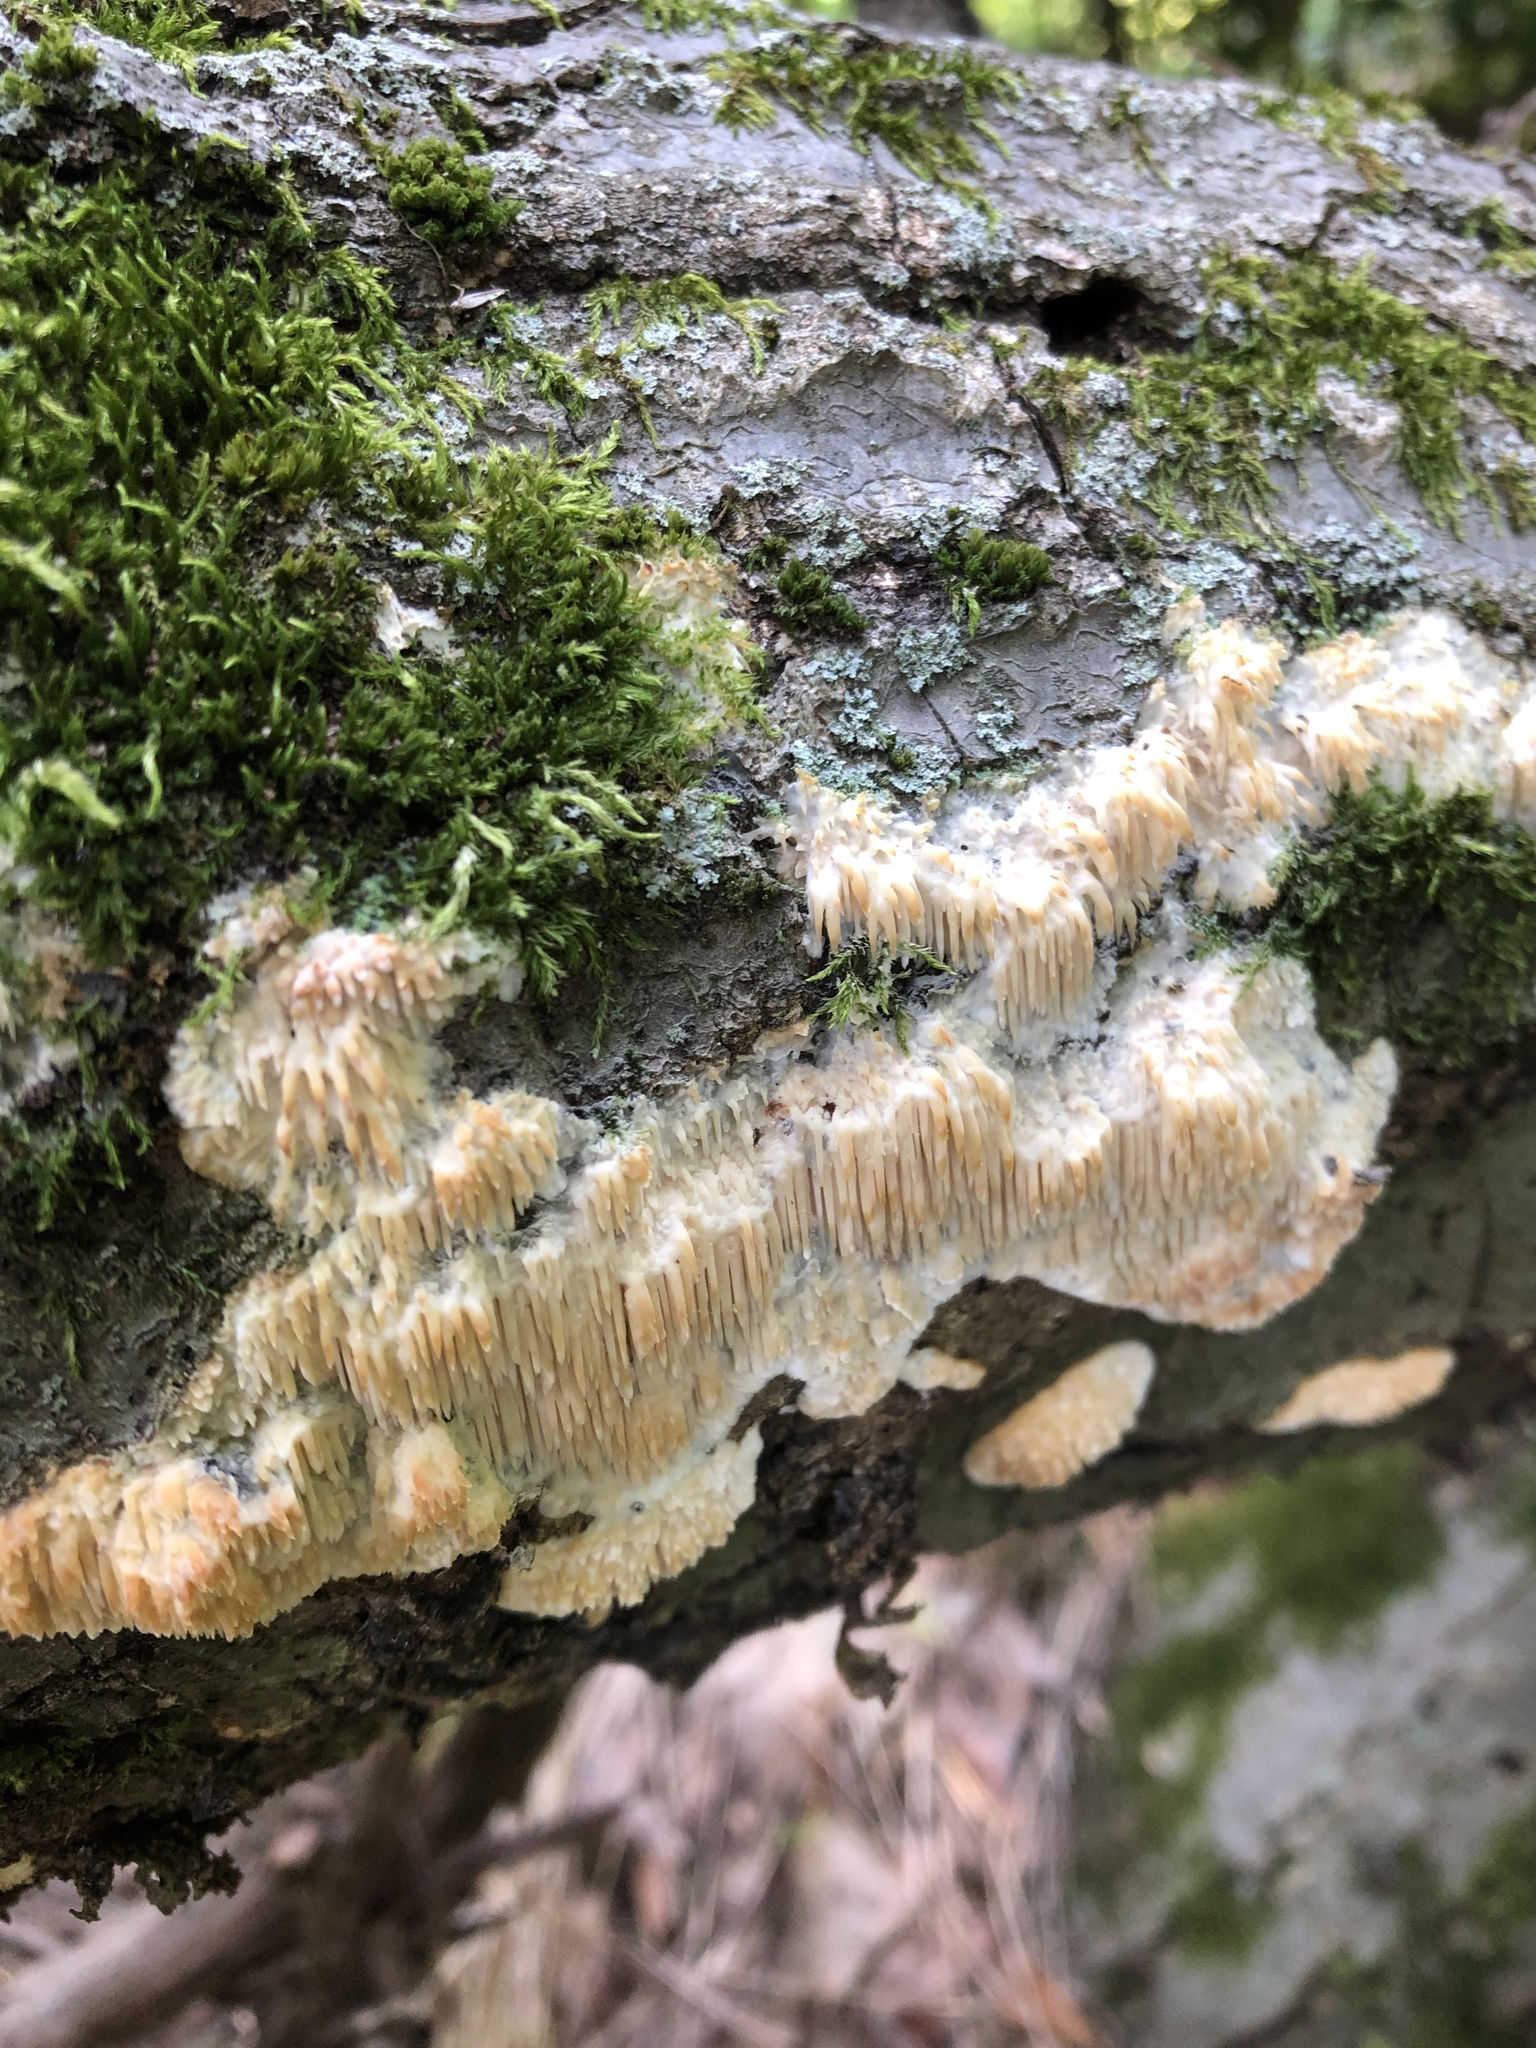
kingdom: Fungi
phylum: Basidiomycota
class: Agaricomycetes
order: Agaricales
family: Radulomycetaceae
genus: Radulomyces
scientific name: Radulomyces copelandii
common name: Asian beauty
